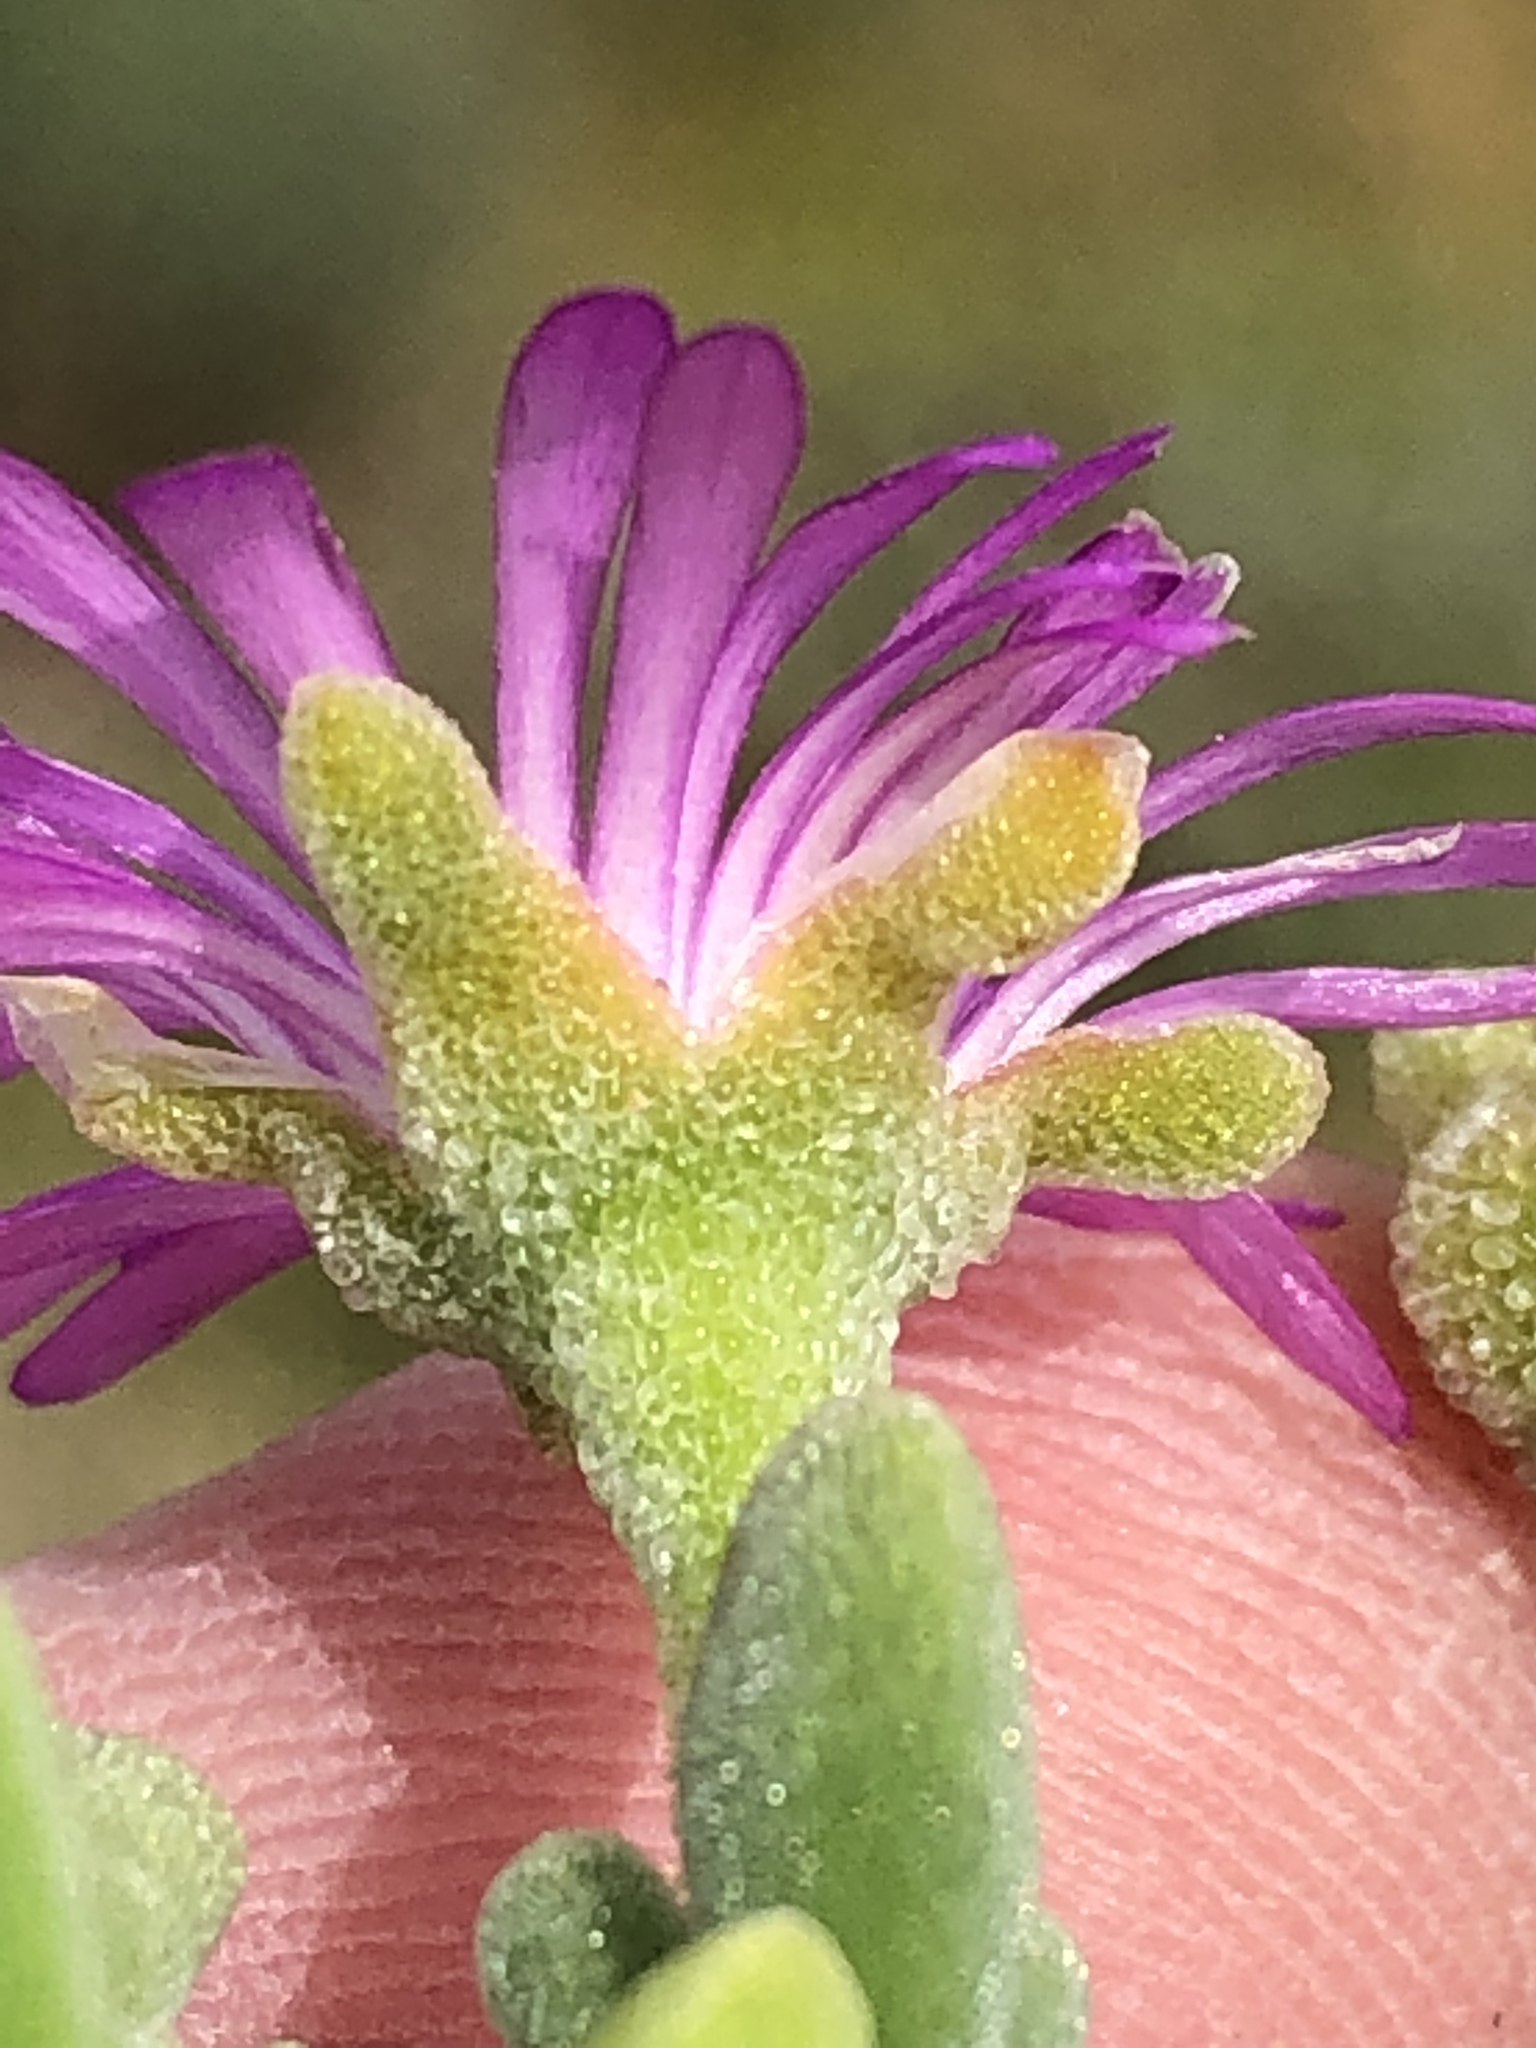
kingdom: Plantae
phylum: Tracheophyta
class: Magnoliopsida
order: Caryophyllales
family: Aizoaceae
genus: Drosanthemum
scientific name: Drosanthemum candens
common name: Rodondo-creeper
